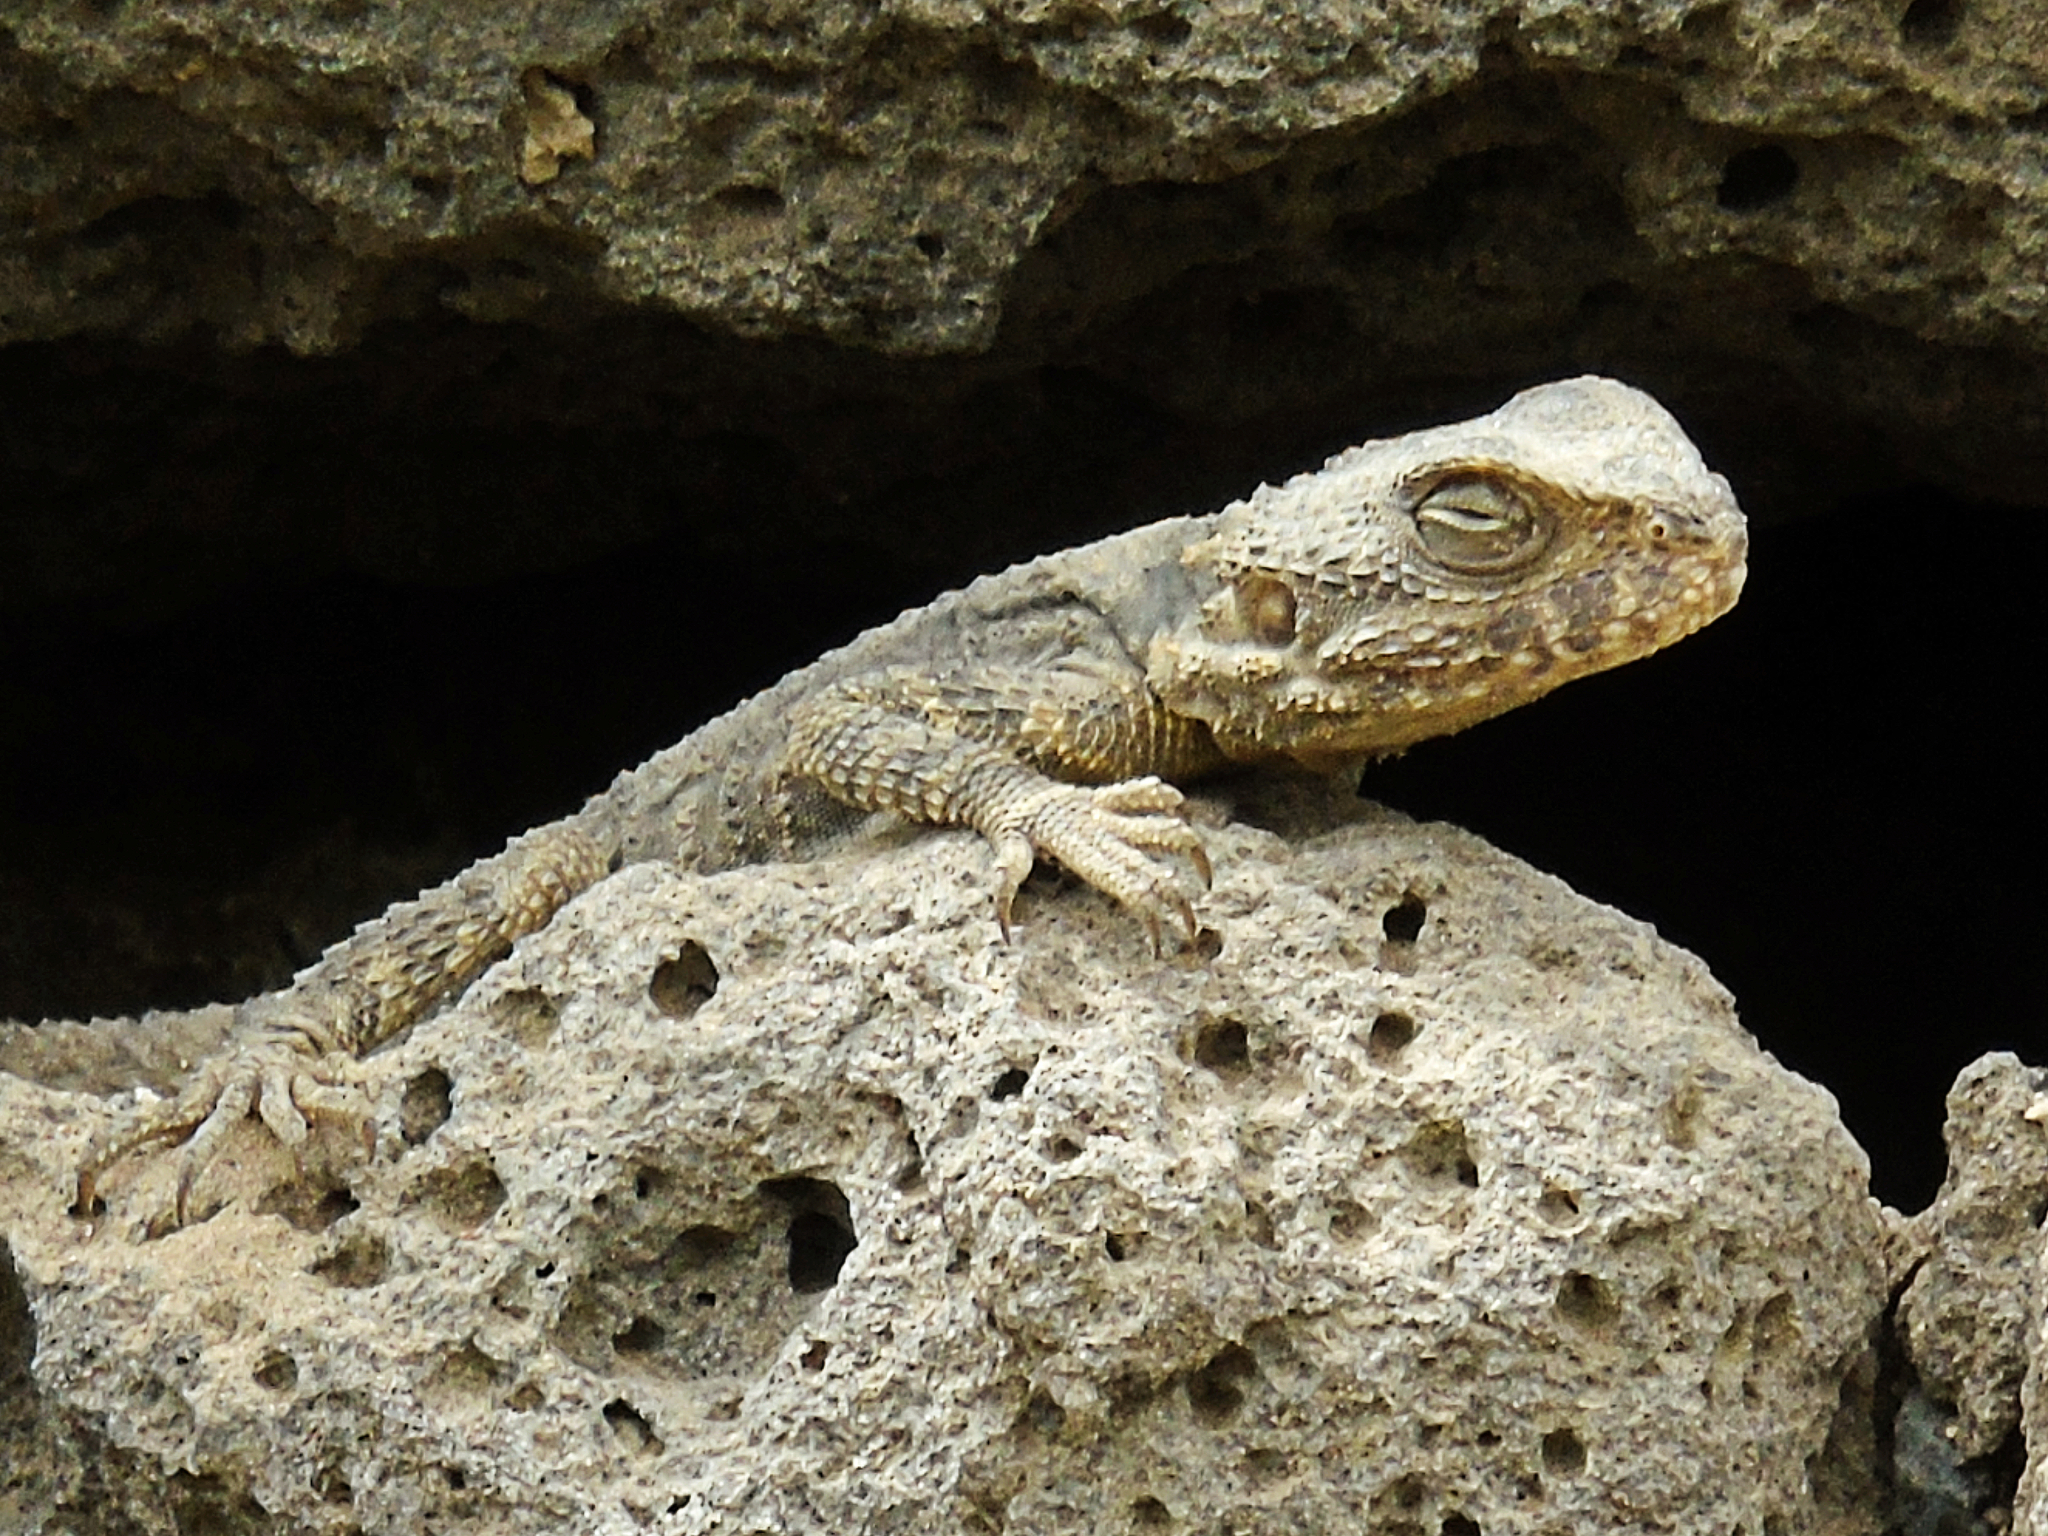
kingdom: Animalia
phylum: Chordata
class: Squamata
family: Agamidae
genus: Stellagama
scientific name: Stellagama stellio
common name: Starred agama
